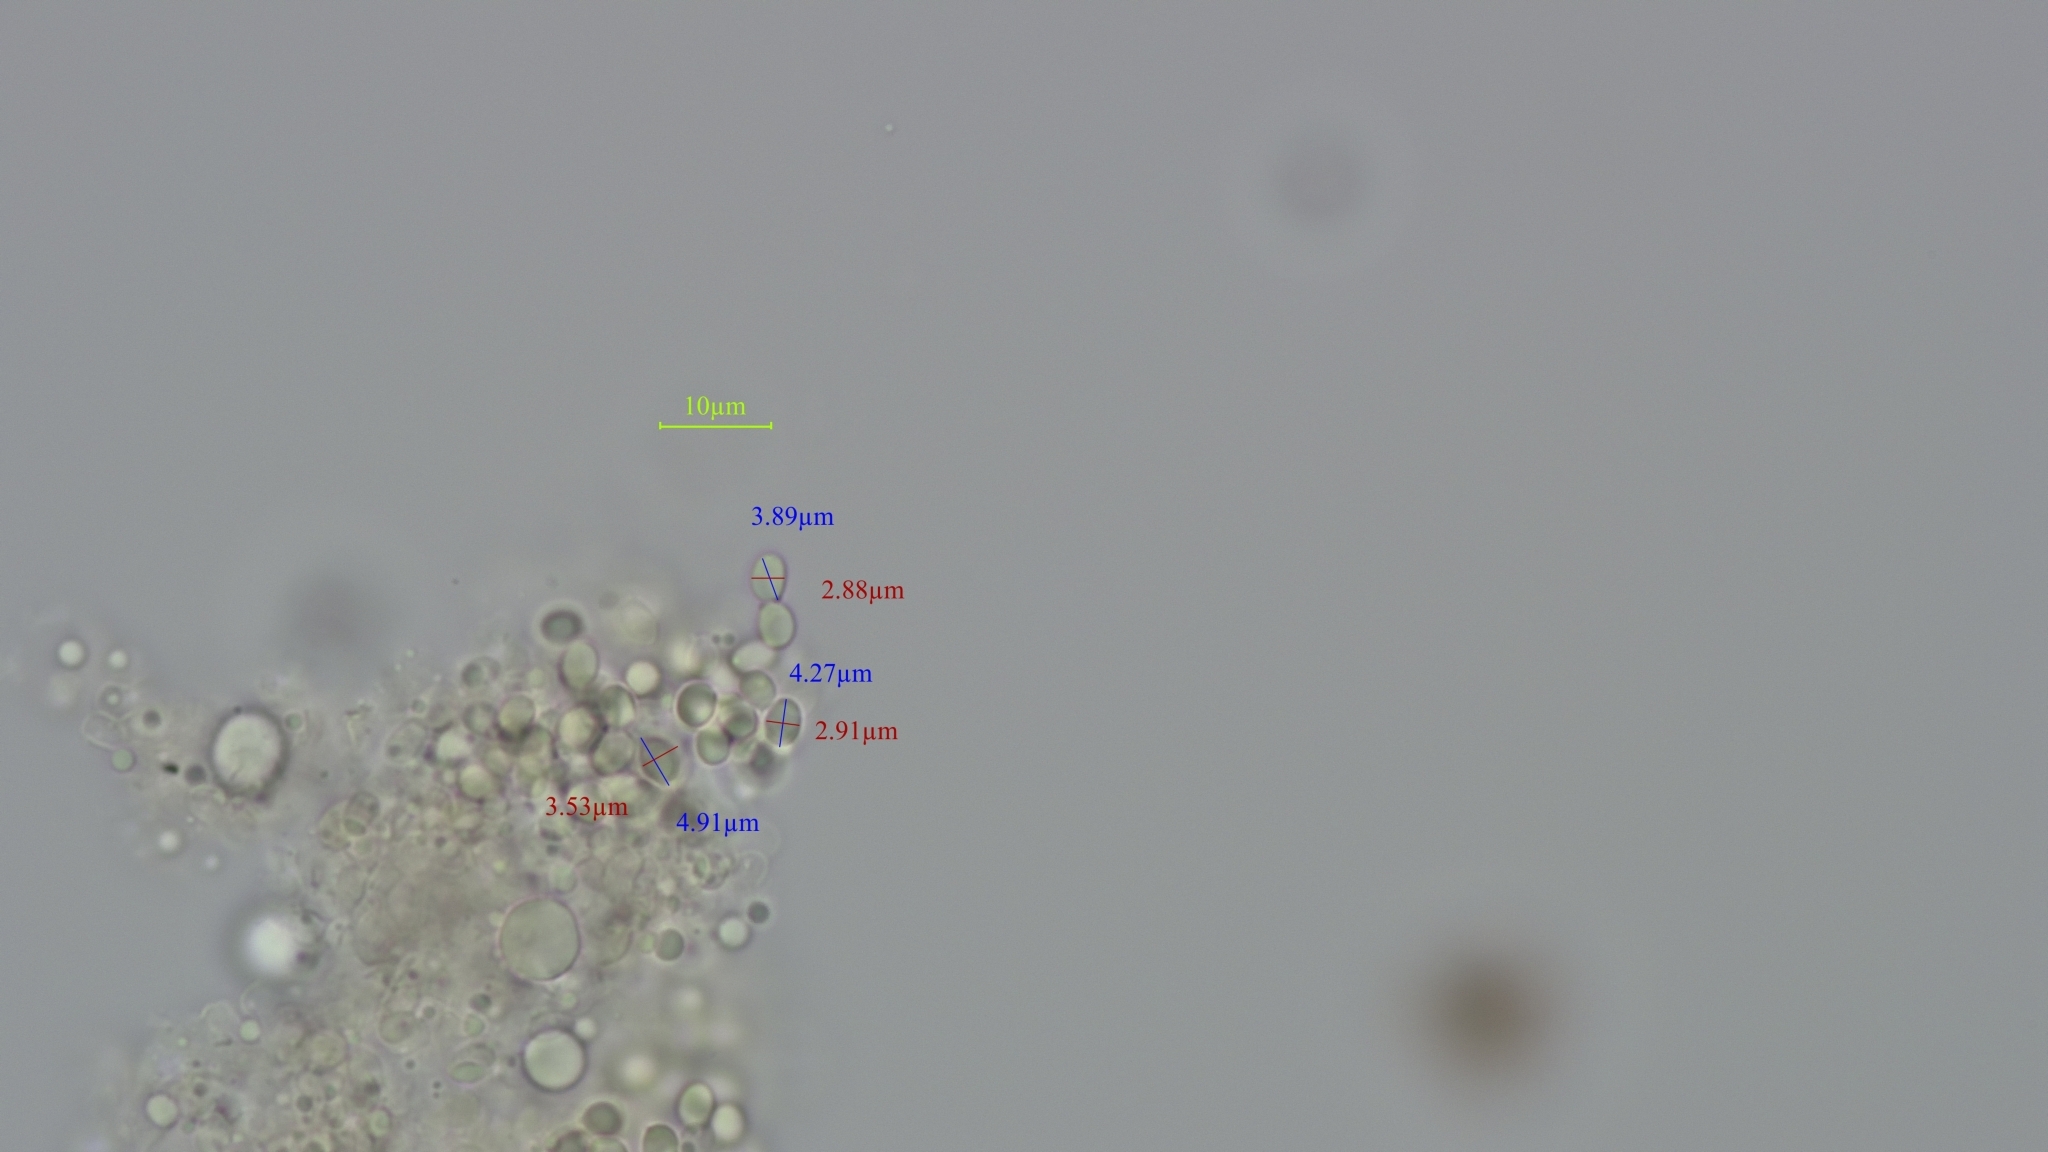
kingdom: Fungi
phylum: Basidiomycota
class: Agaricomycetes
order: Agaricales
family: Callistosporiaceae
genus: Callistosporium
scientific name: Callistosporium
